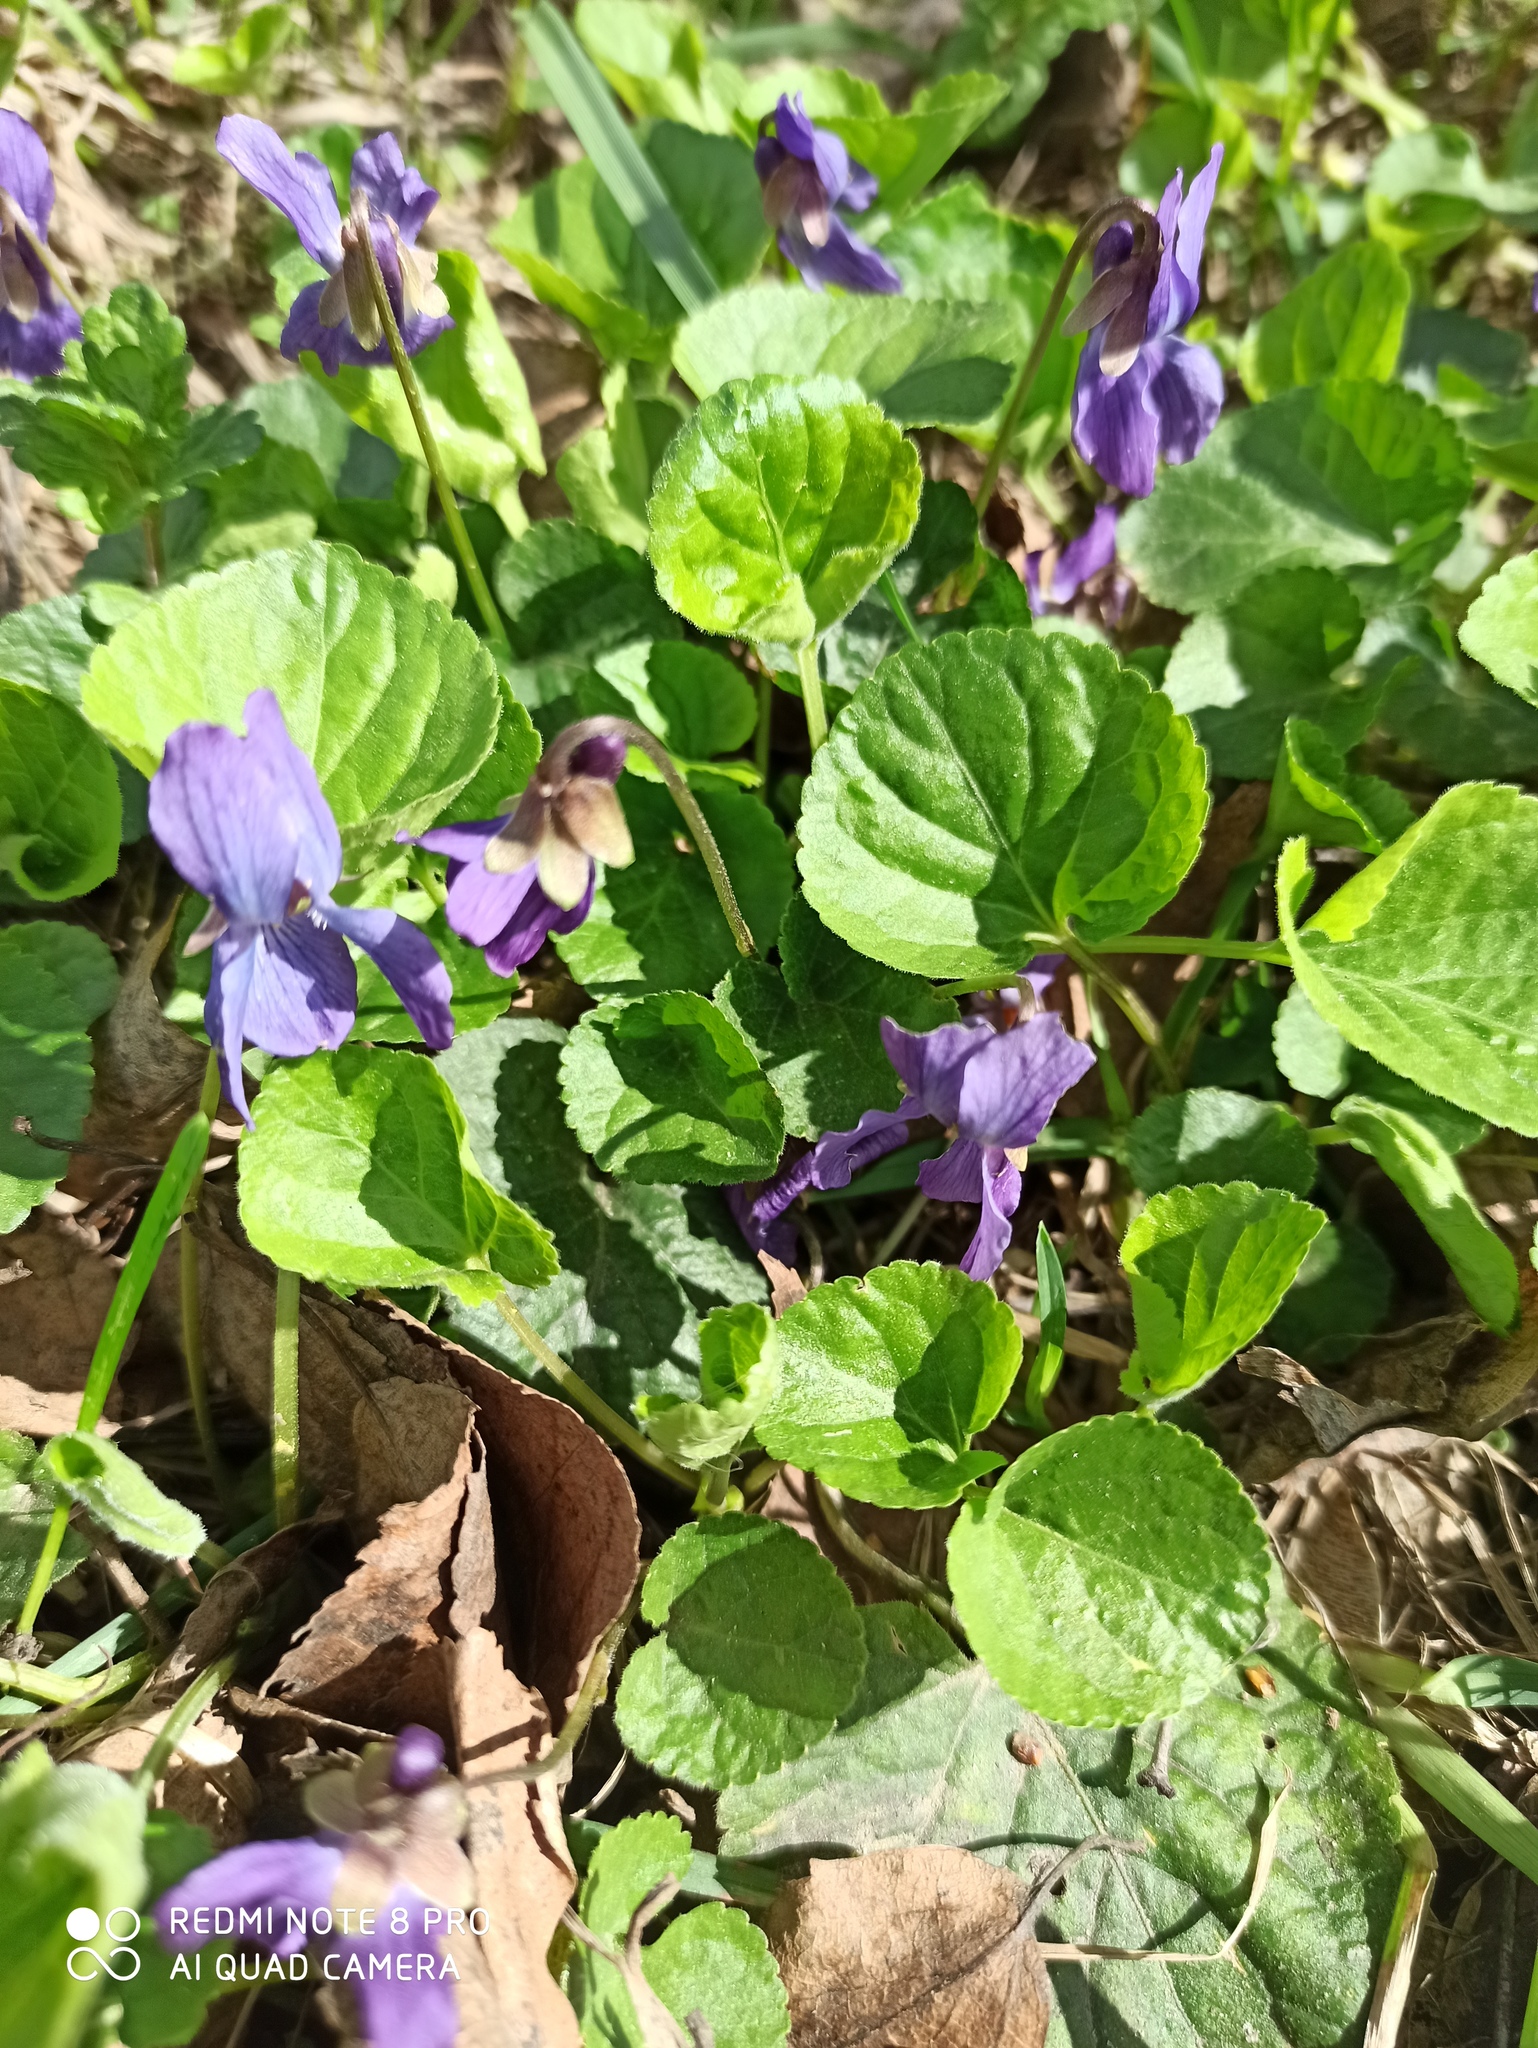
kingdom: Plantae
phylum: Tracheophyta
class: Magnoliopsida
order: Malpighiales
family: Violaceae
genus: Viola
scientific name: Viola odorata
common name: Sweet violet
